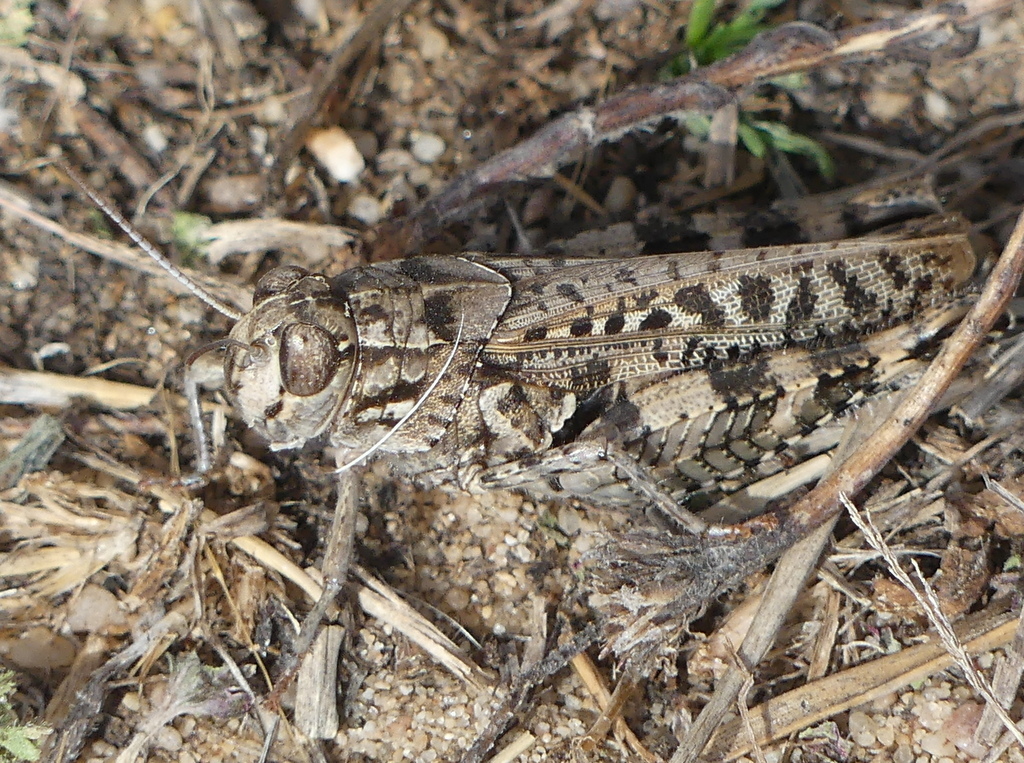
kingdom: Animalia
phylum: Arthropoda
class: Insecta
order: Orthoptera
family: Acrididae
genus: Calliptamus
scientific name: Calliptamus barbarus
